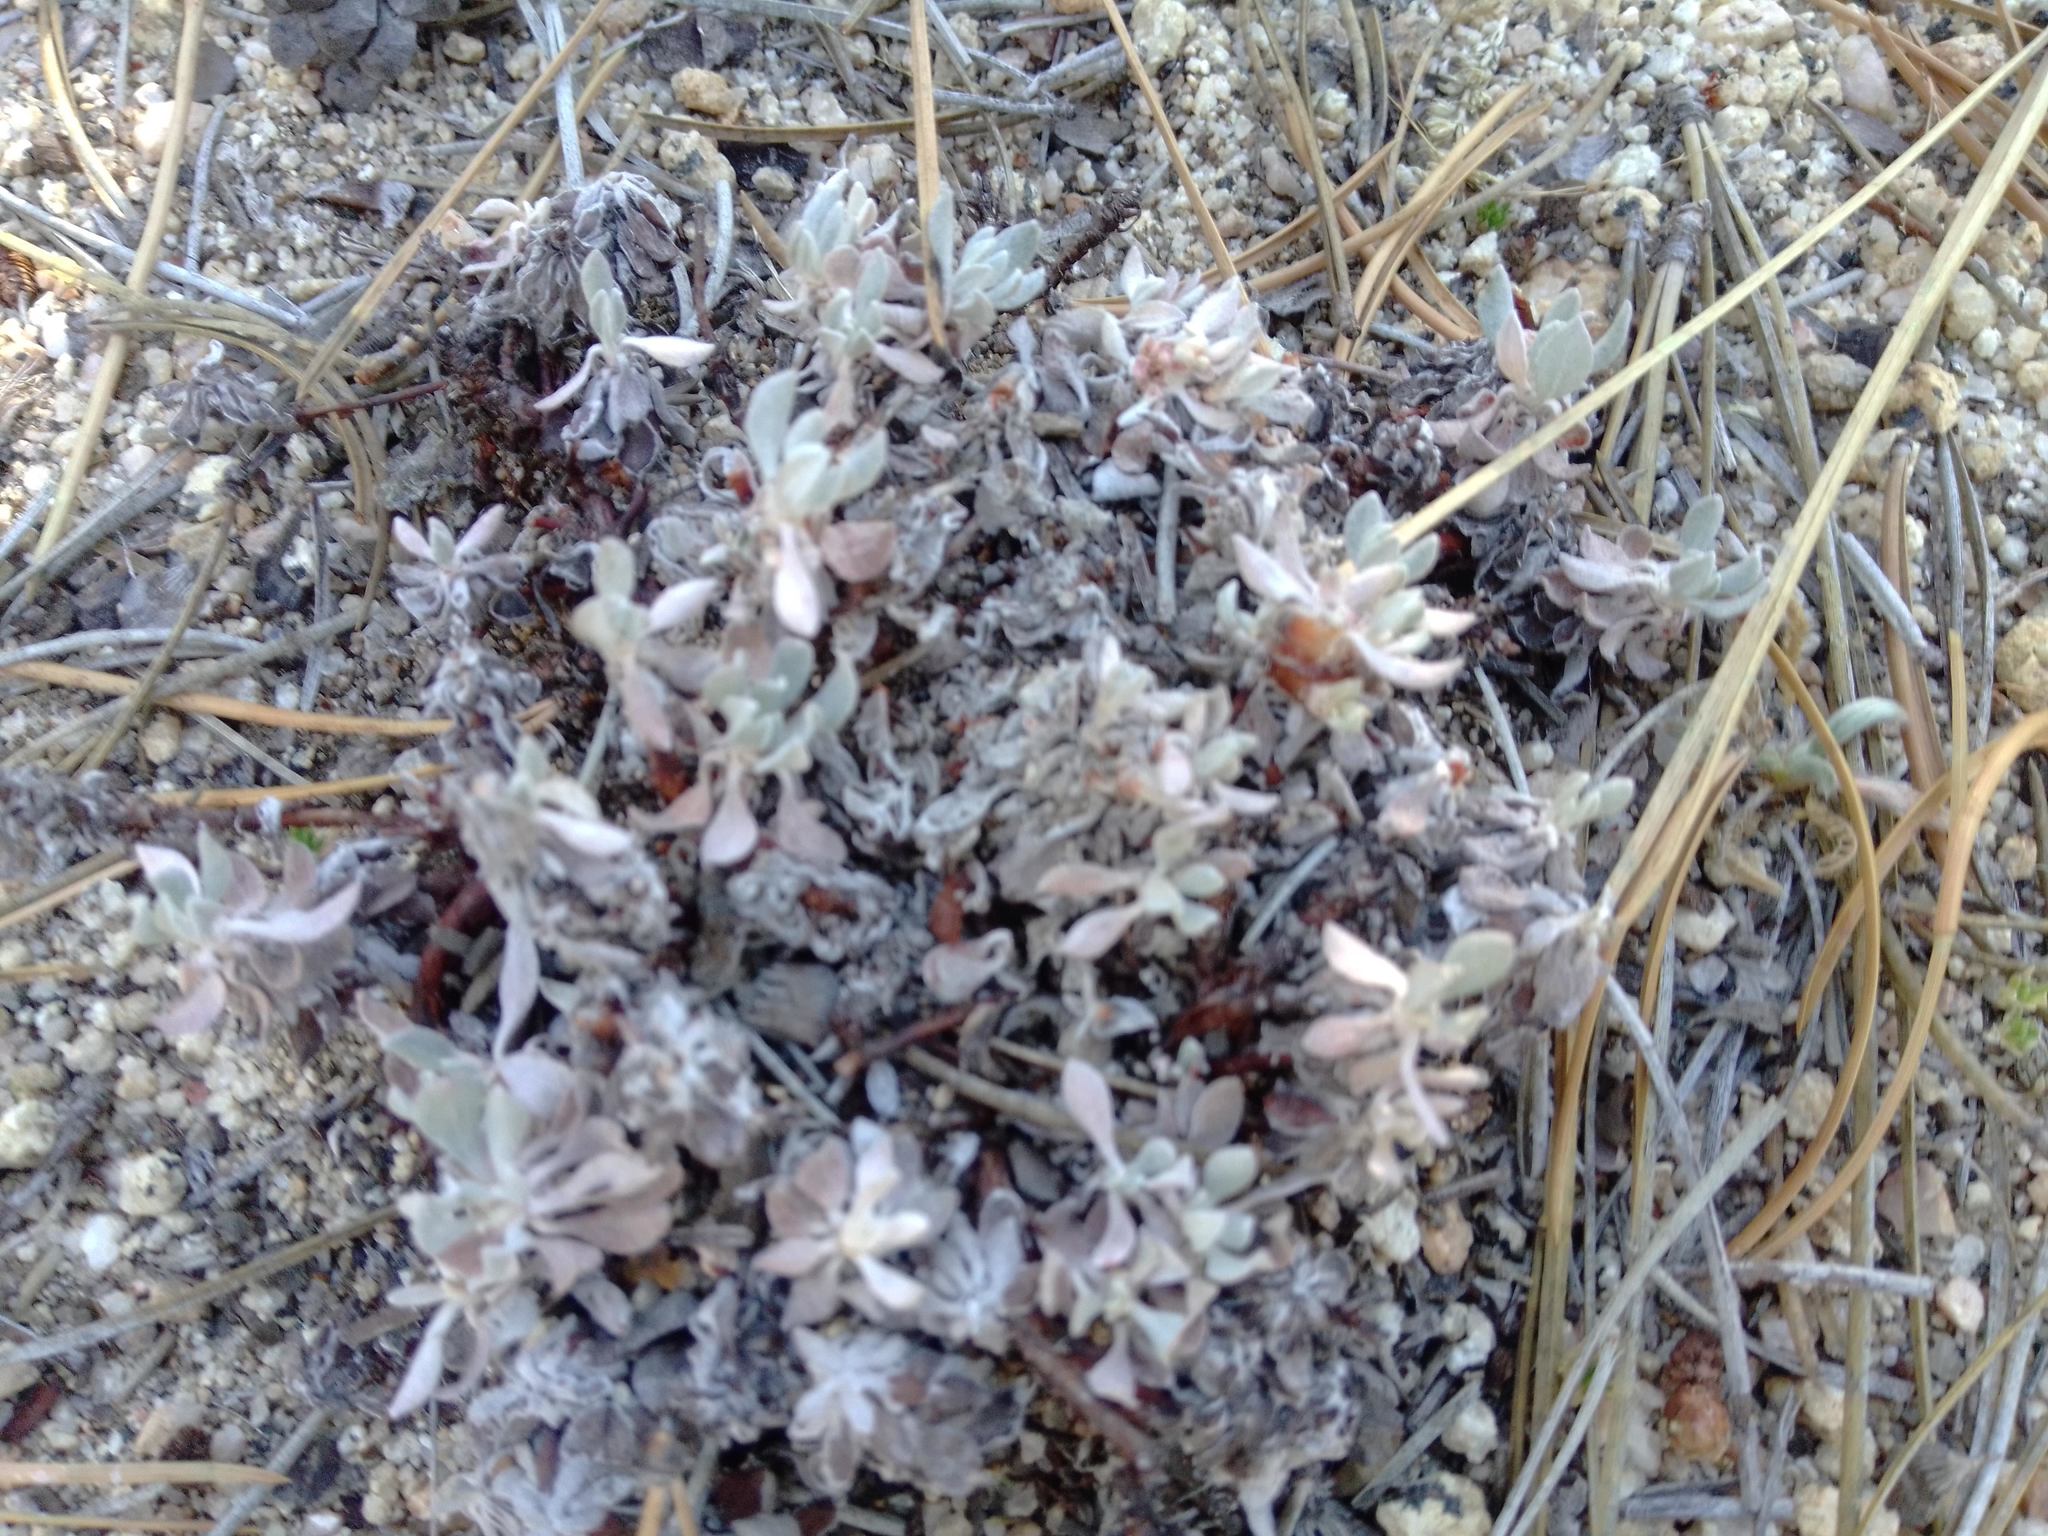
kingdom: Plantae
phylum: Tracheophyta
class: Magnoliopsida
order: Caryophyllales
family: Polygonaceae
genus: Eriogonum
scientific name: Eriogonum wrightii
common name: Bastard-sage
